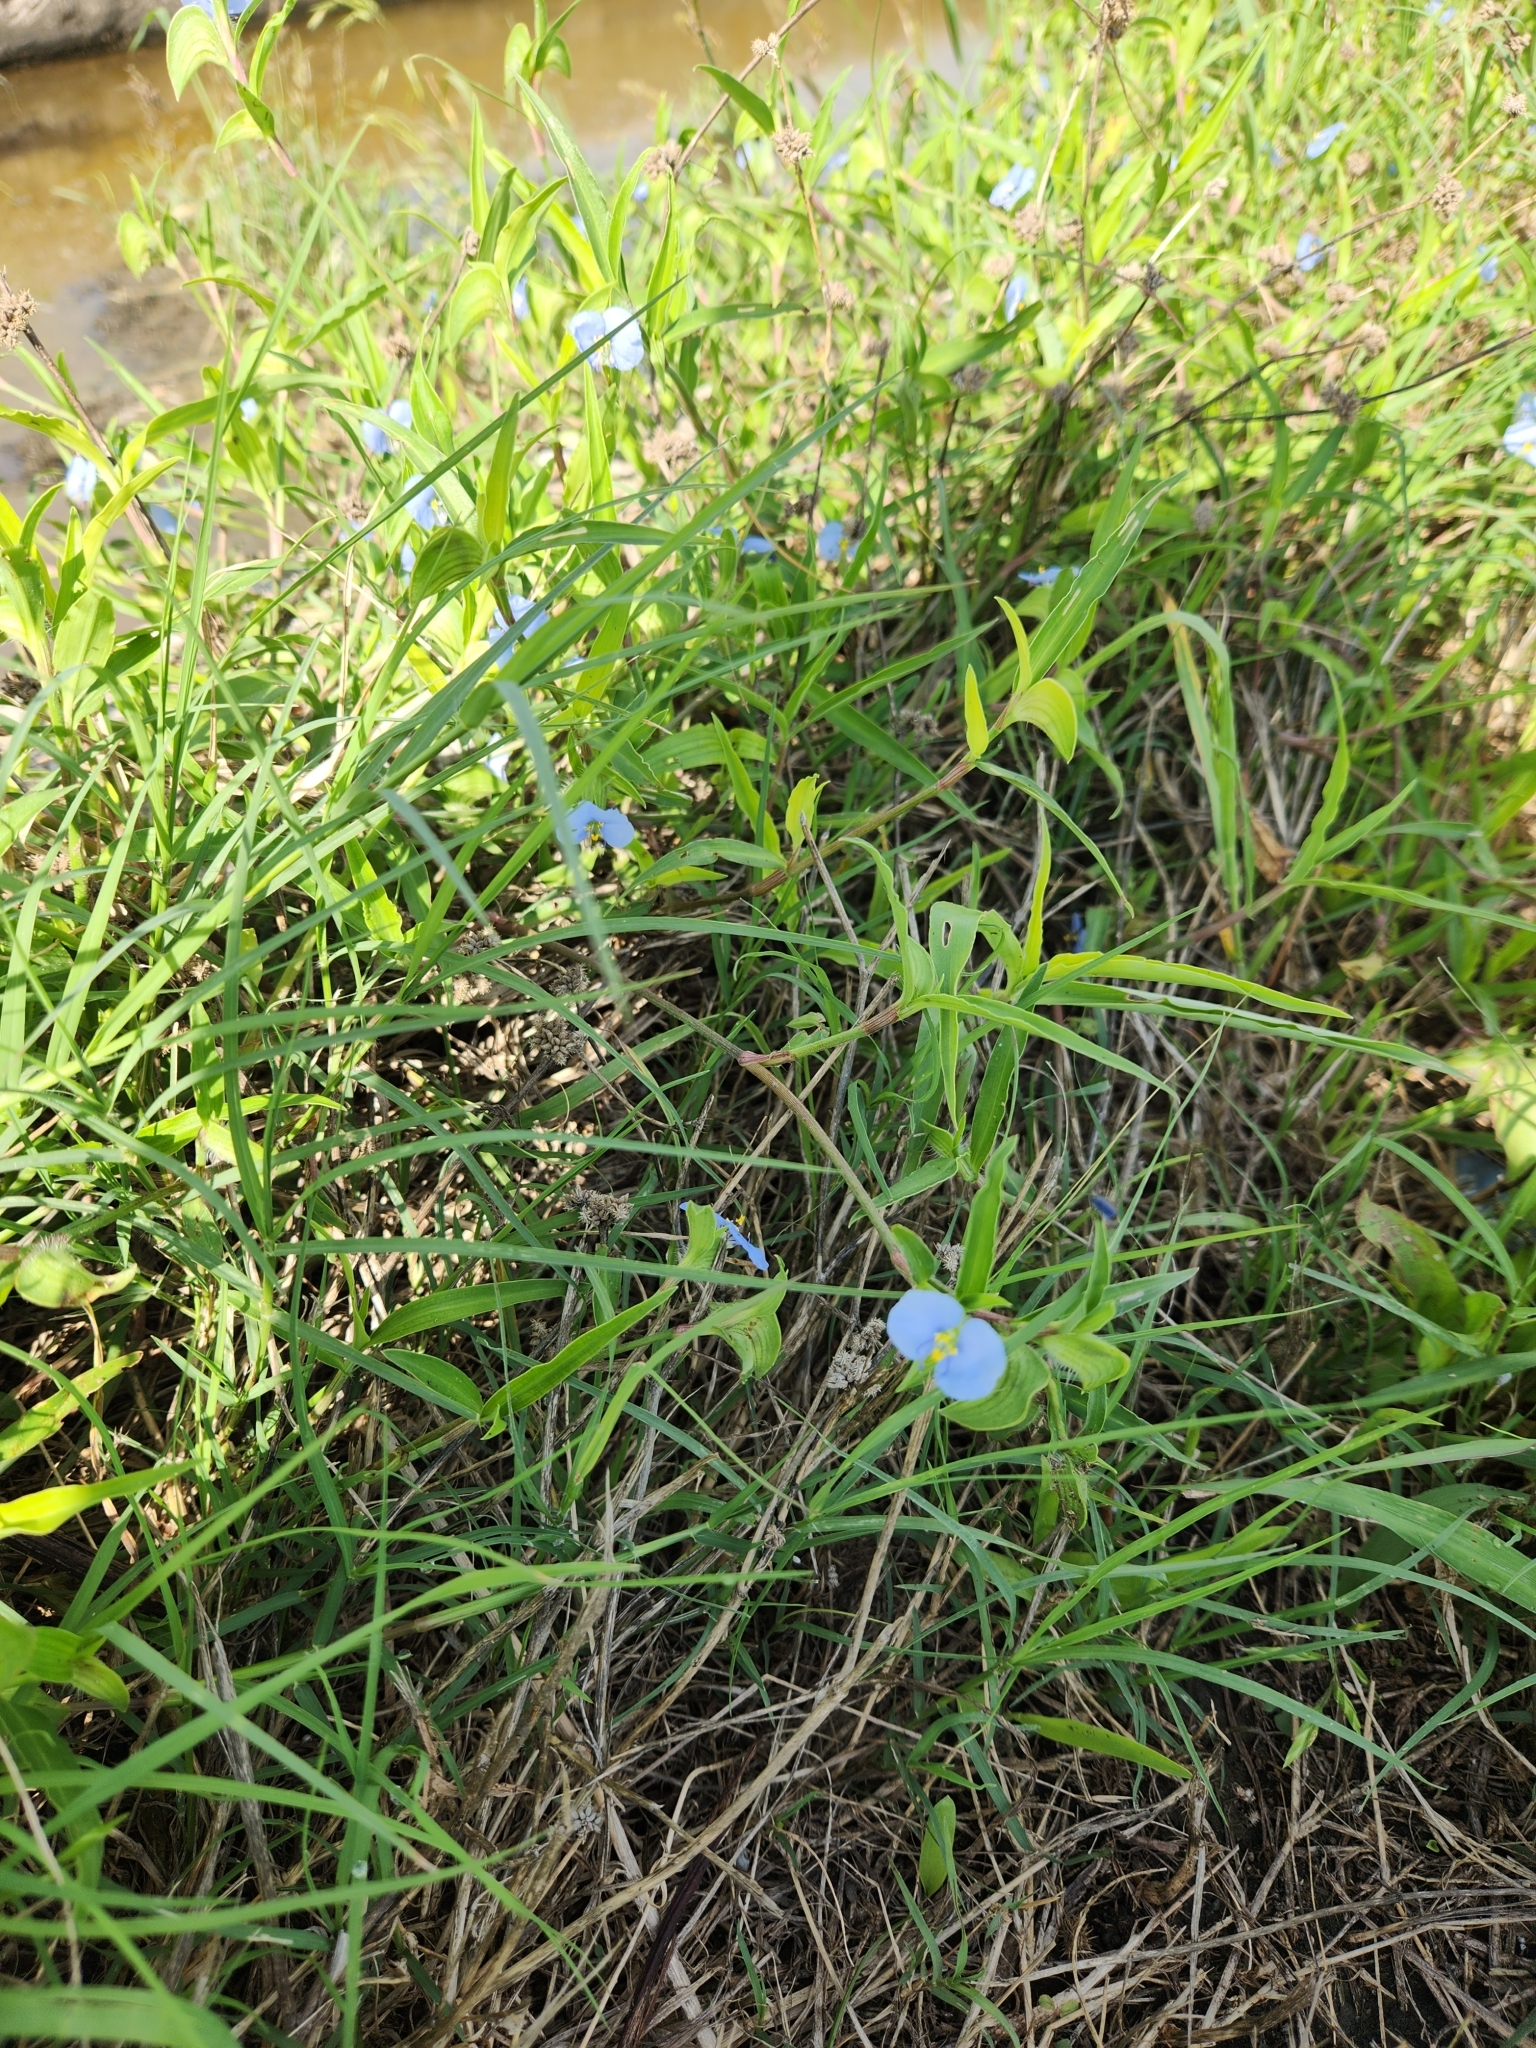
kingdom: Plantae
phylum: Tracheophyta
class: Liliopsida
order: Commelinales
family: Commelinaceae
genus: Commelina
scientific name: Commelina erecta
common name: Blousel blommetjie
